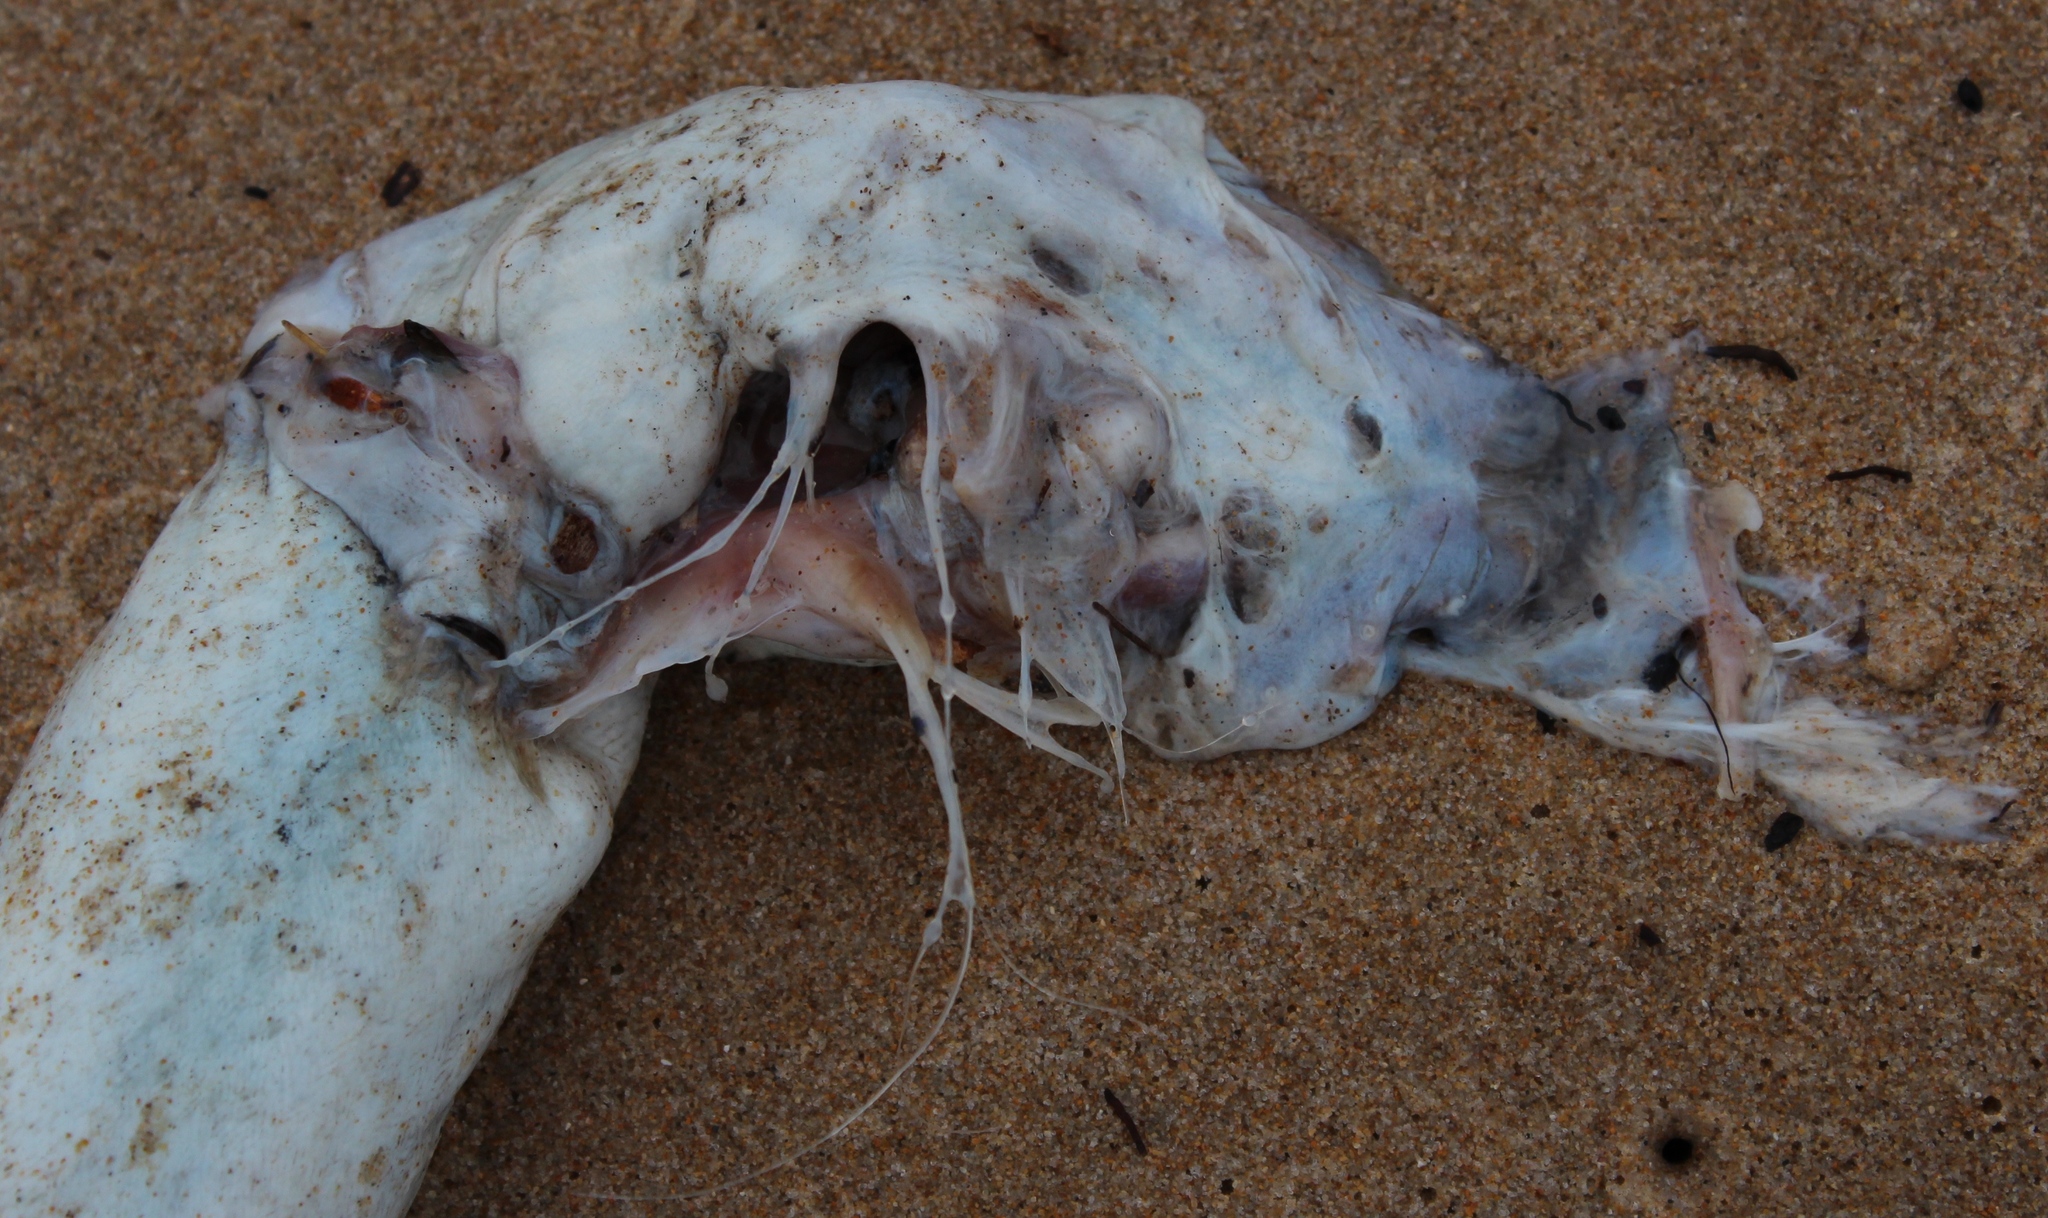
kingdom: Animalia
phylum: Chordata
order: Anguilliformes
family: Congridae
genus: Conger
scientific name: Conger wilsoni
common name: Cape conger
